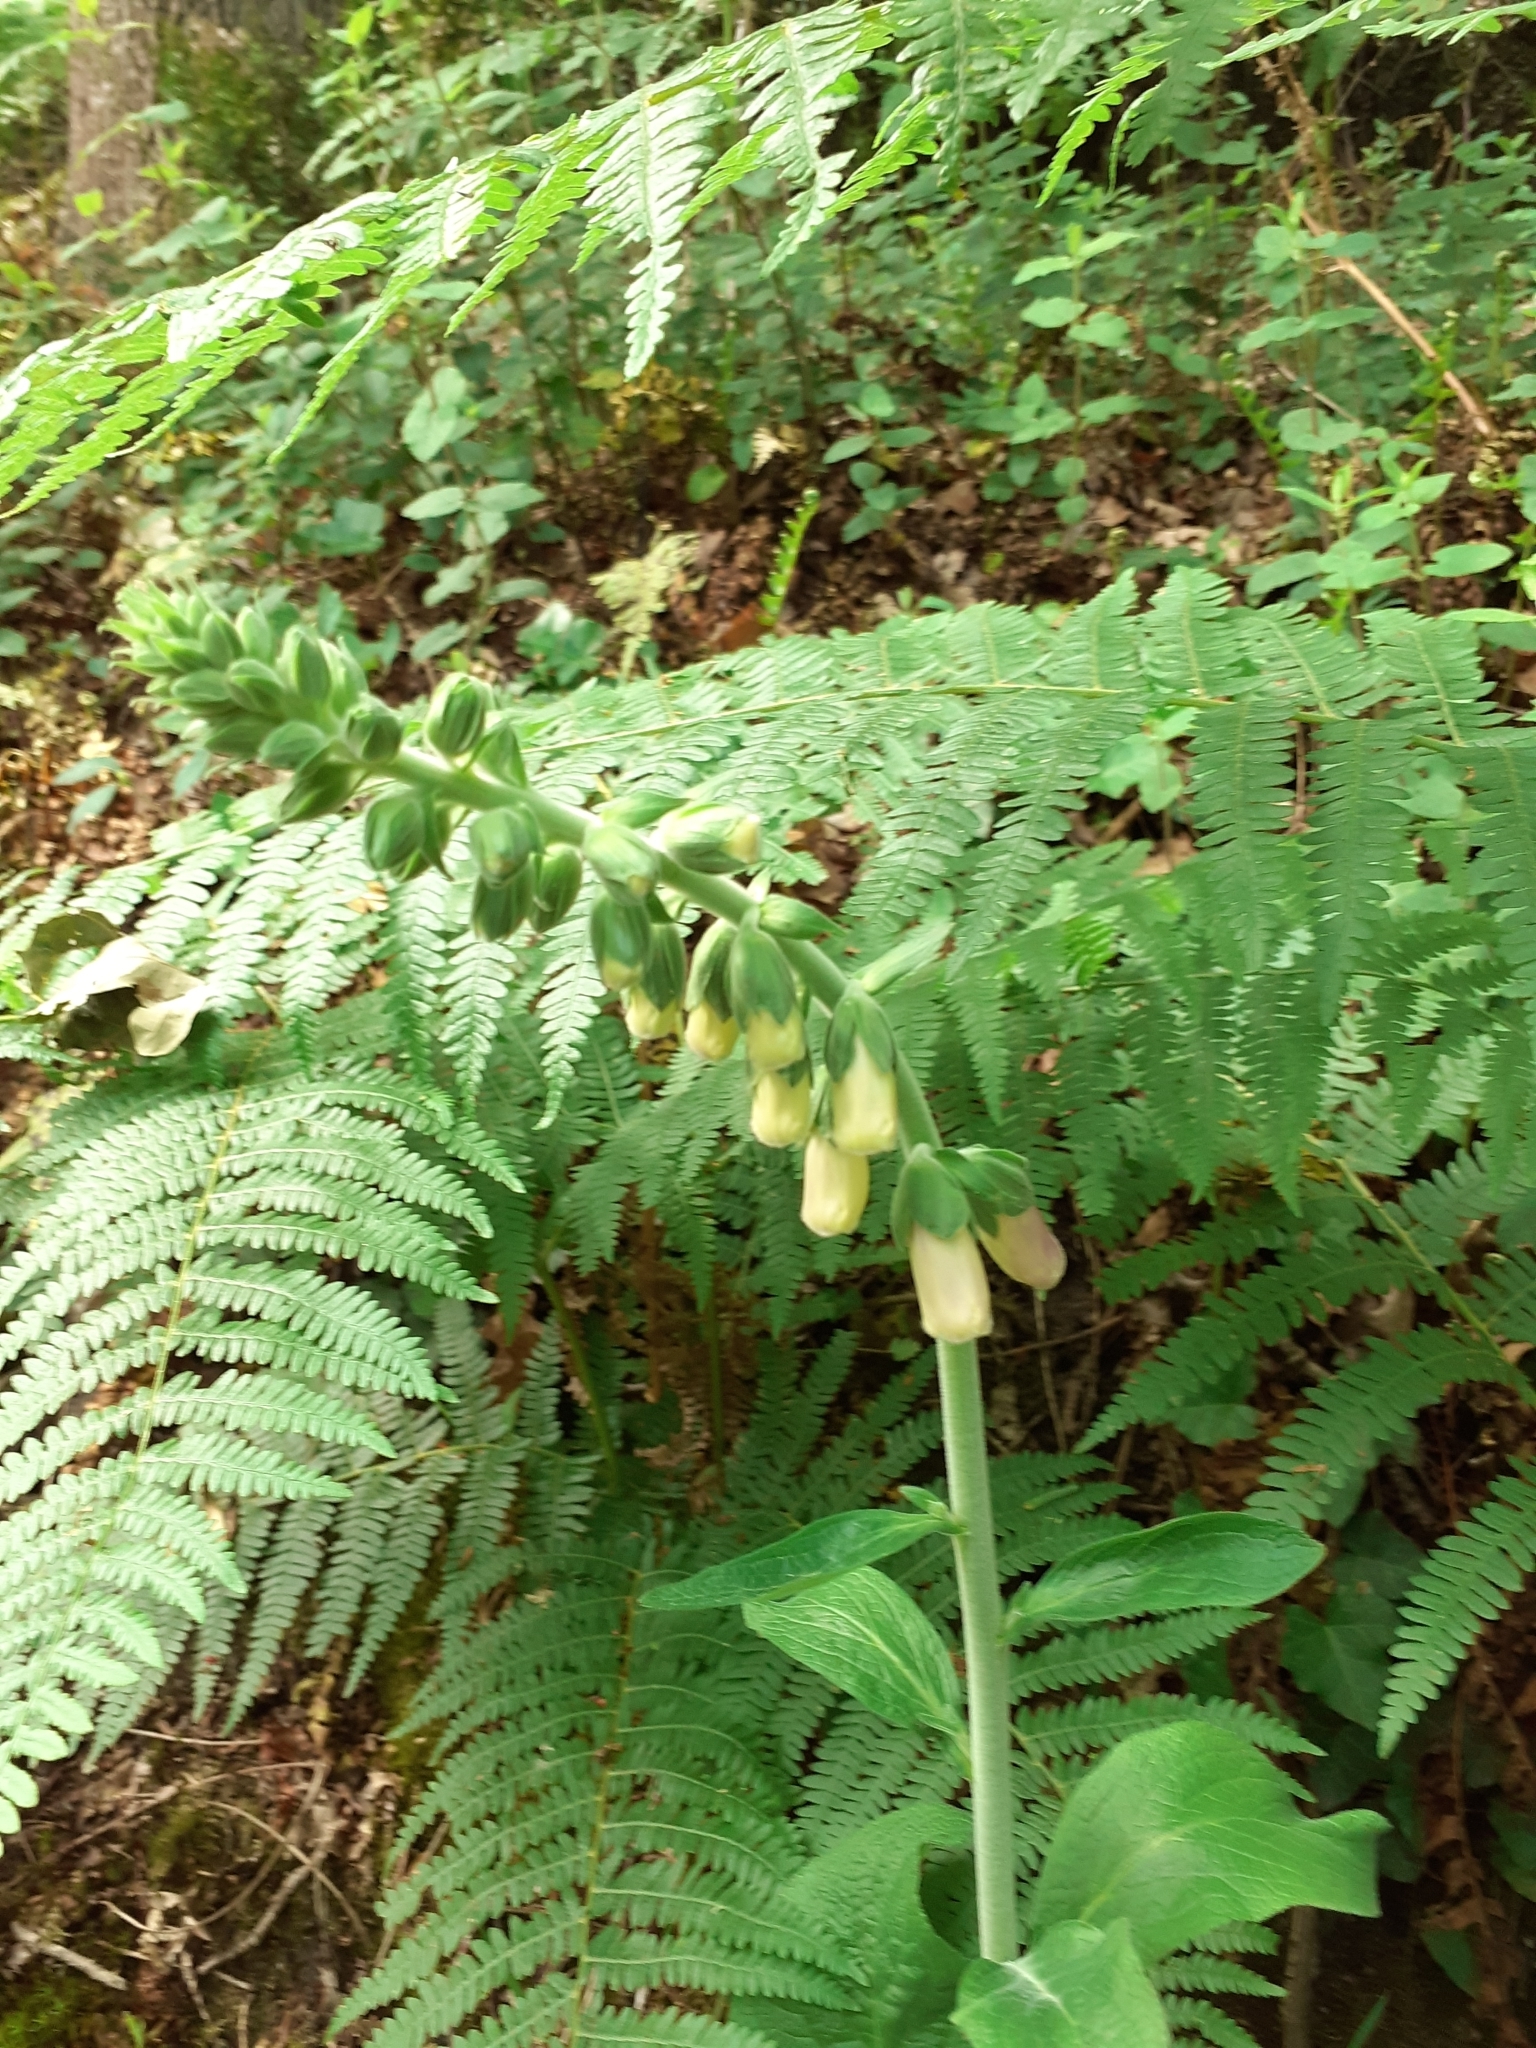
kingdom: Plantae
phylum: Tracheophyta
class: Magnoliopsida
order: Lamiales
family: Plantaginaceae
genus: Digitalis
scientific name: Digitalis purpurea
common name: Foxglove
